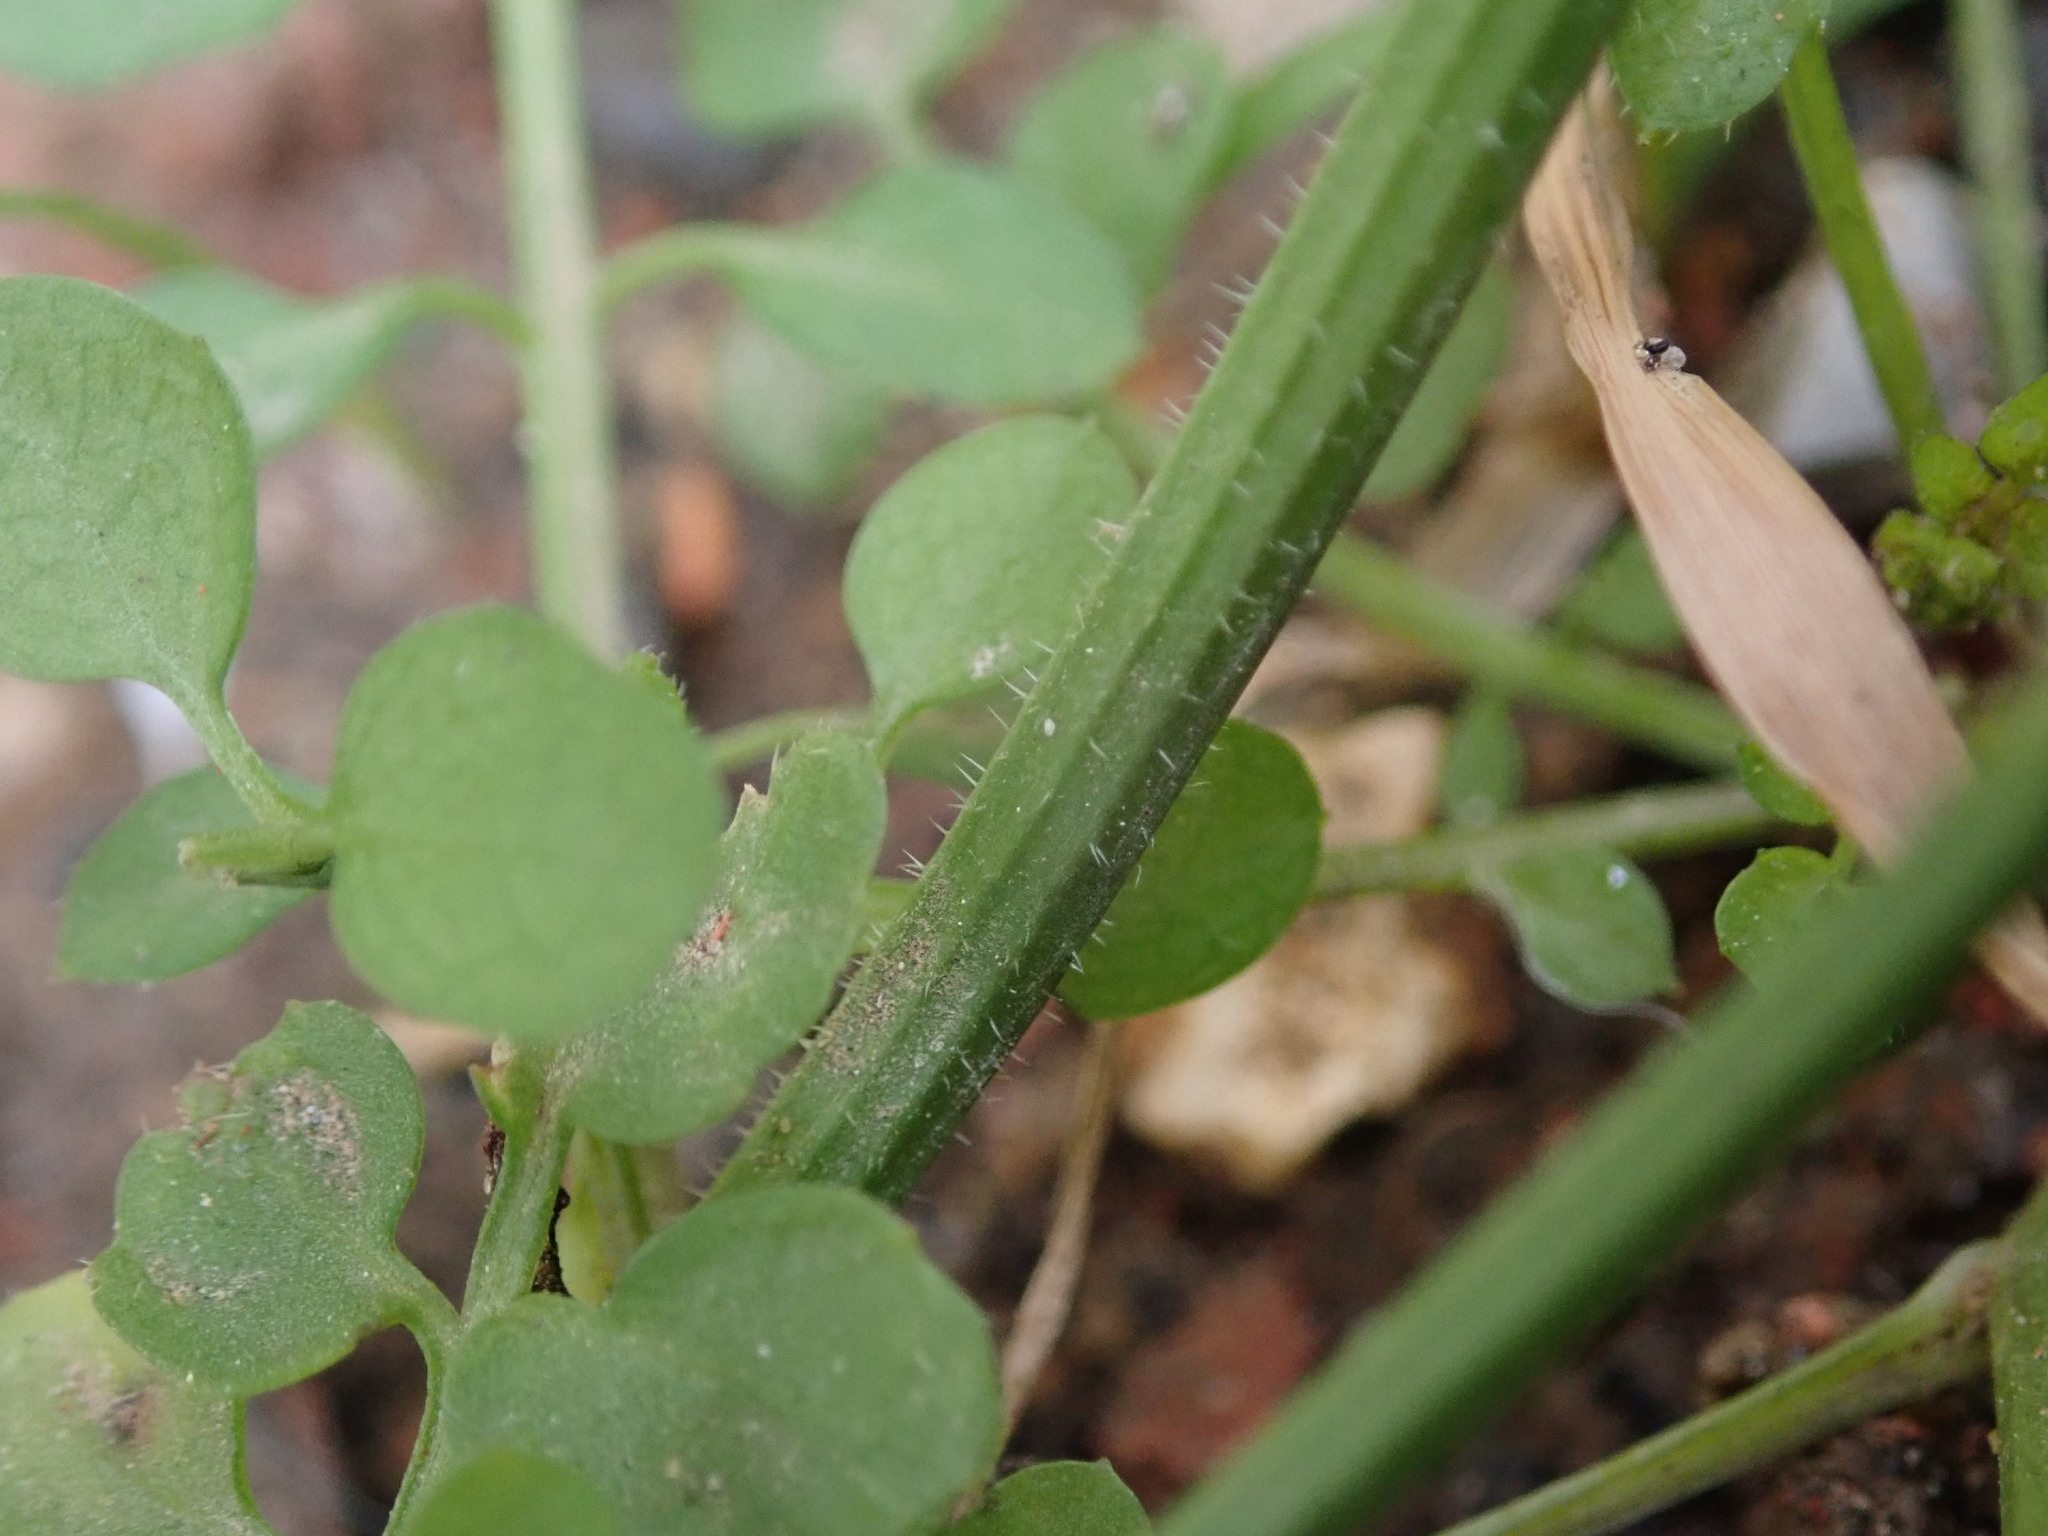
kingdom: Plantae
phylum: Tracheophyta
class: Magnoliopsida
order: Brassicales
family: Brassicaceae
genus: Cardamine
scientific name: Cardamine flexuosa
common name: Woodland bittercress
